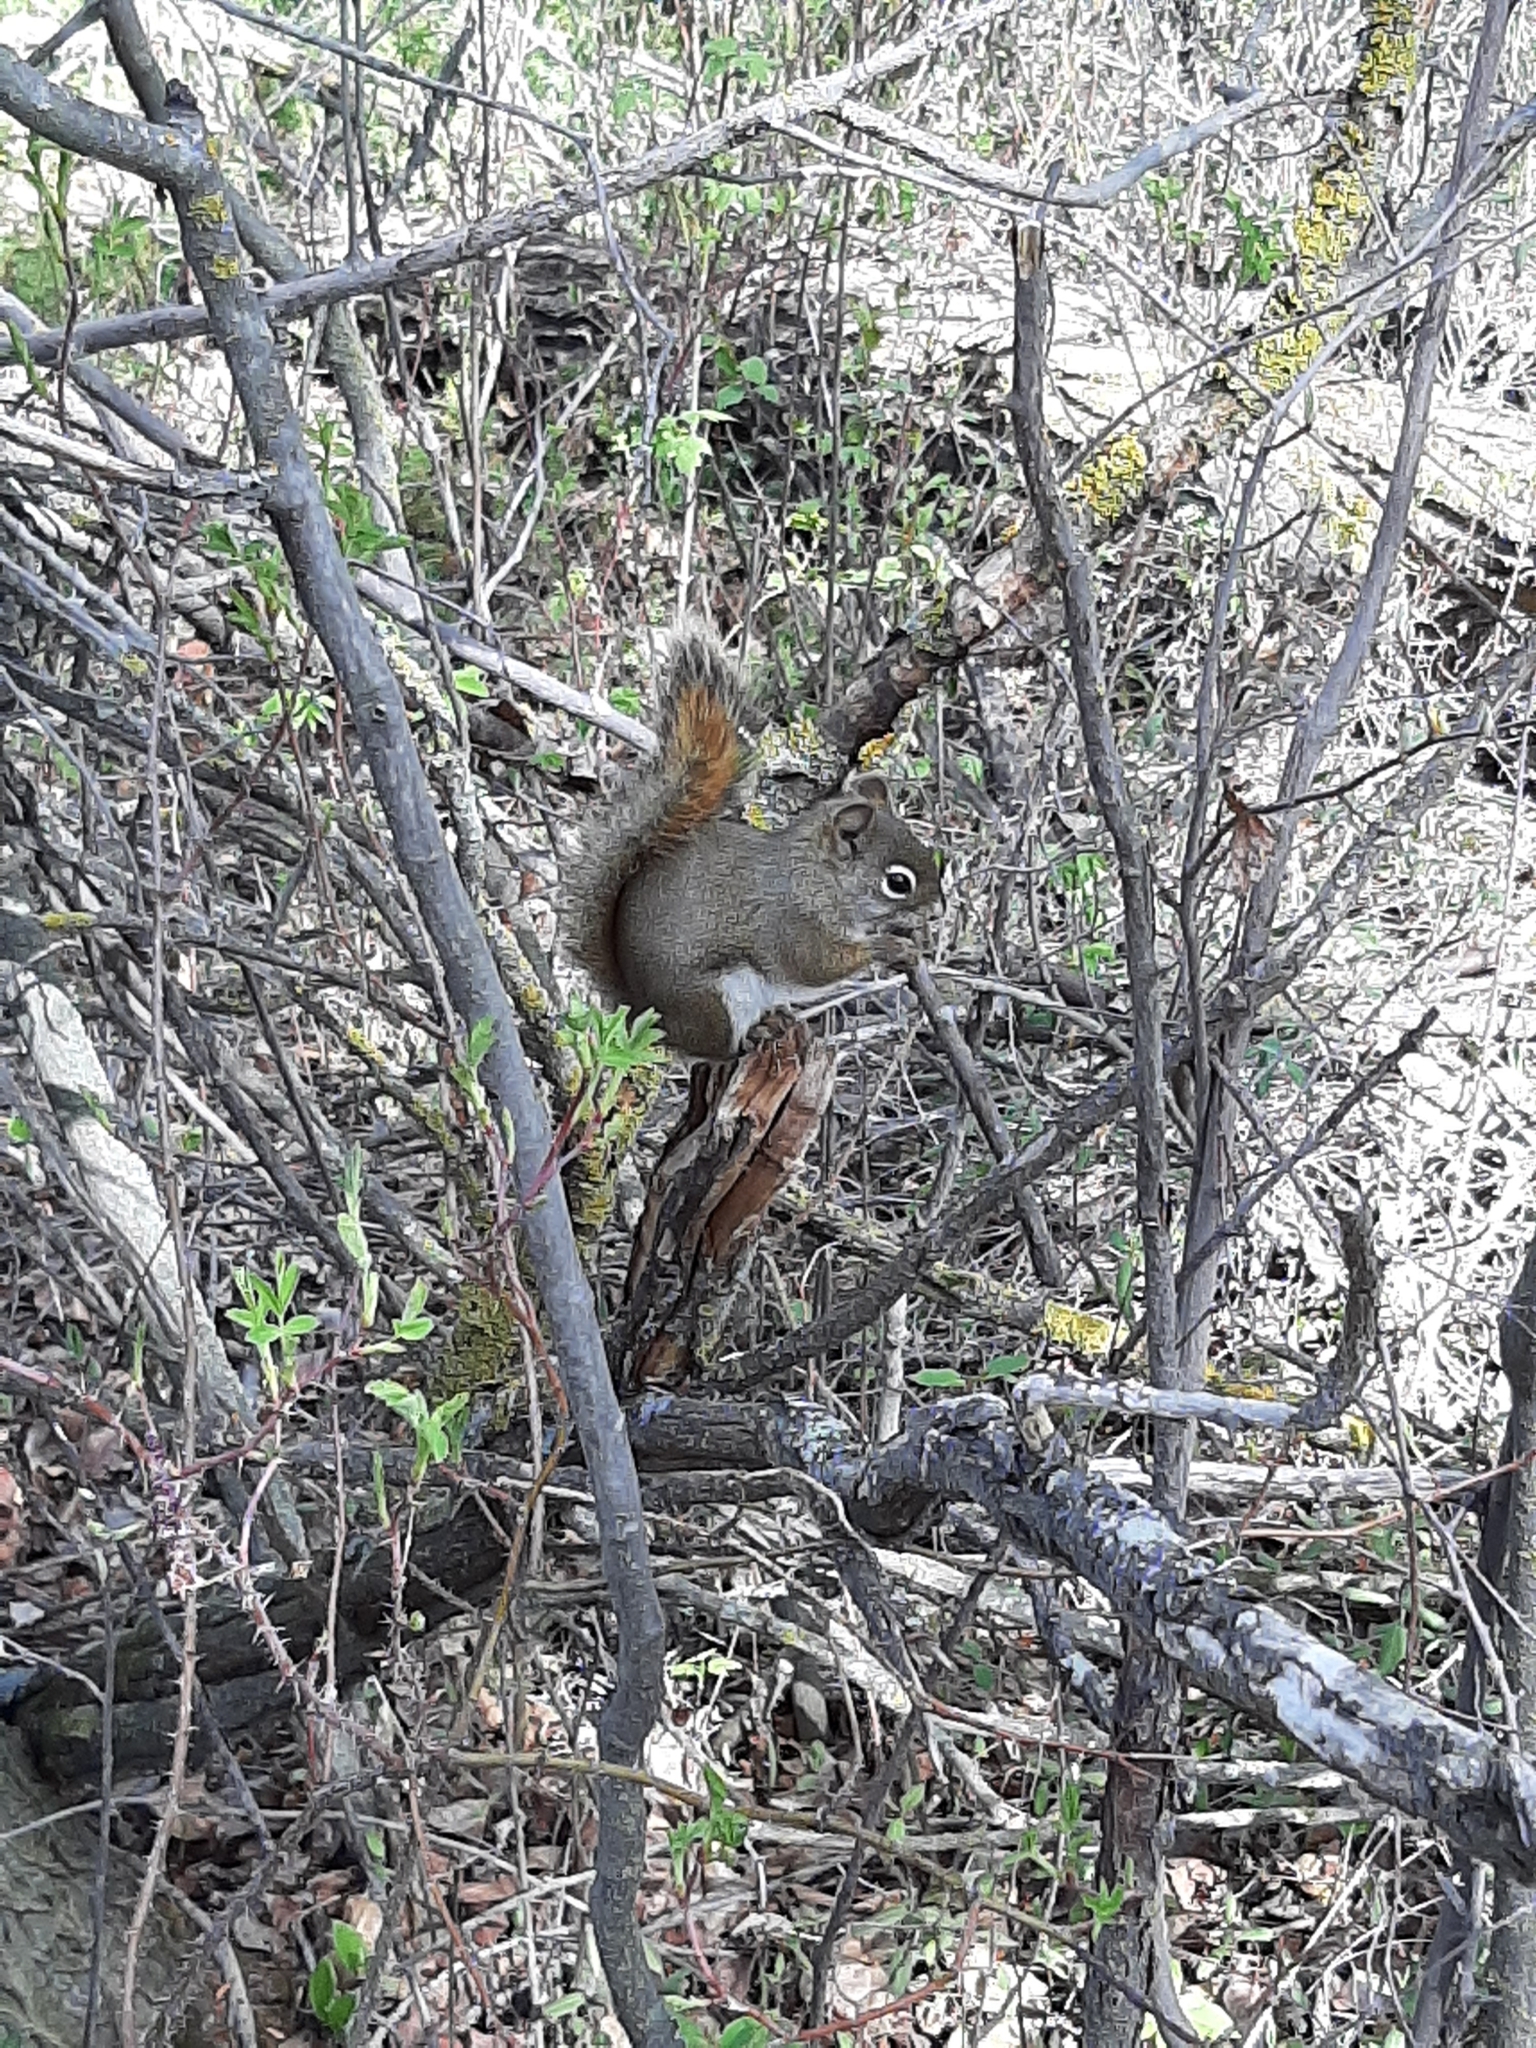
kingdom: Animalia
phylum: Chordata
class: Mammalia
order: Rodentia
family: Sciuridae
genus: Tamiasciurus
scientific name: Tamiasciurus hudsonicus
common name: Red squirrel
